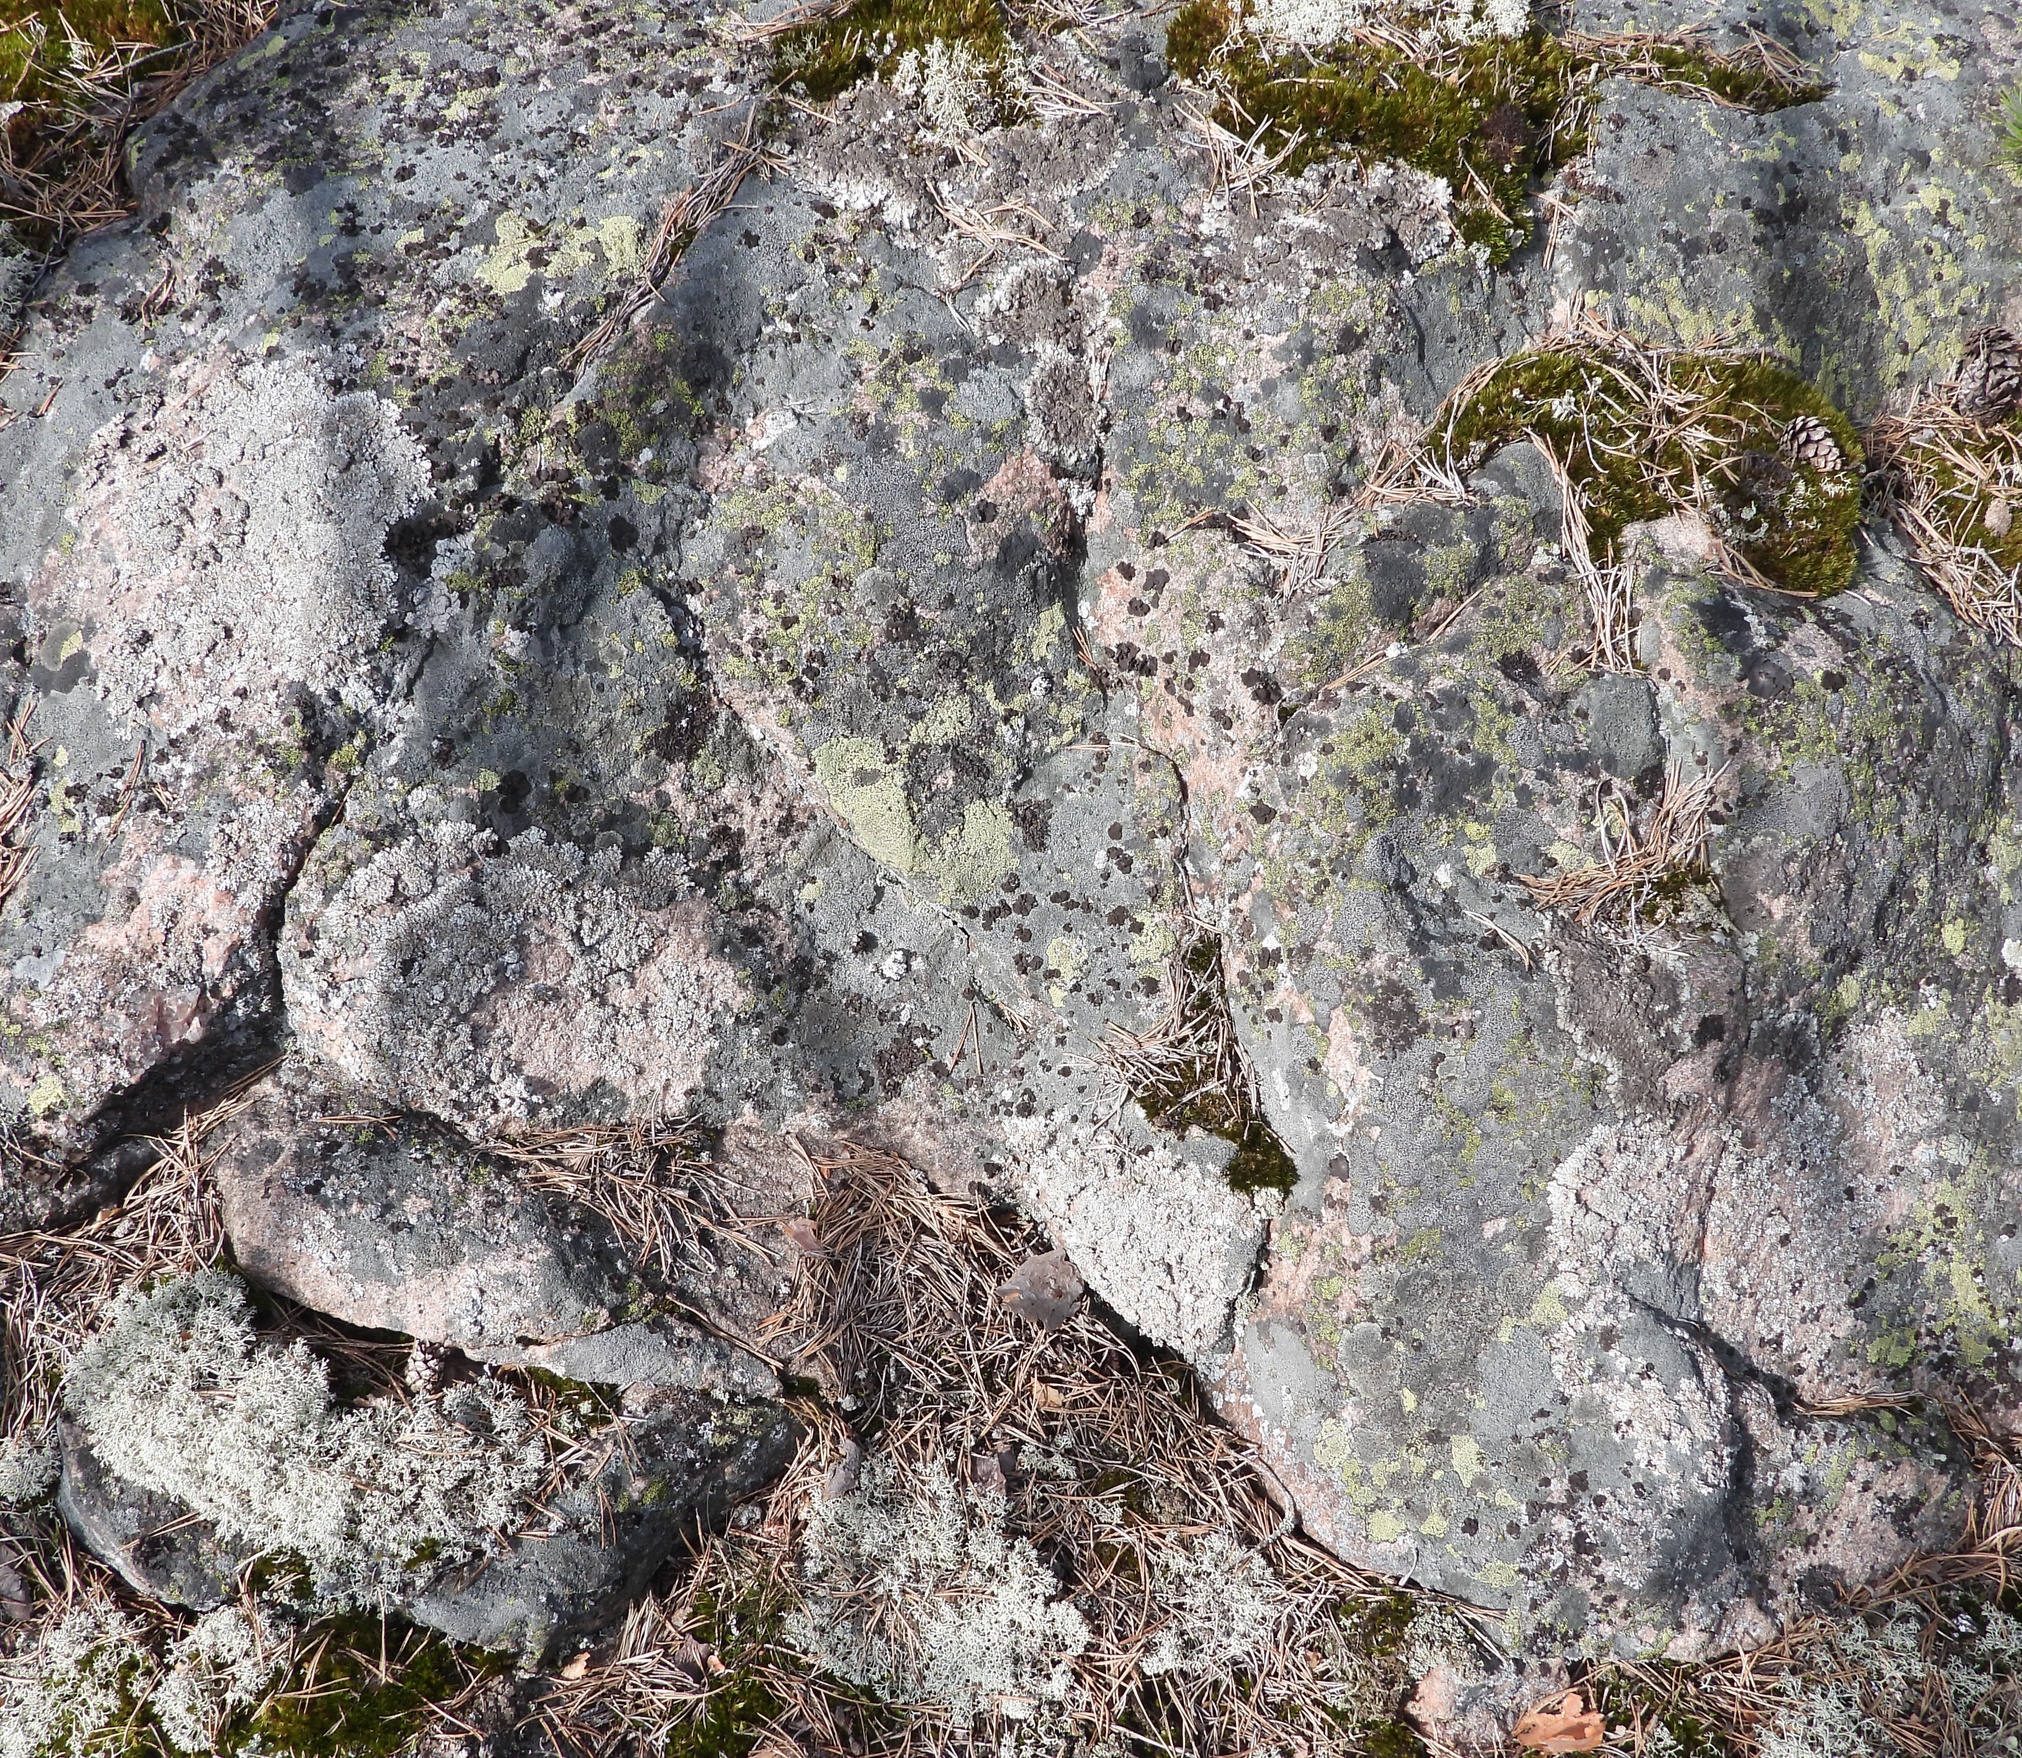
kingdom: Fungi
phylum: Ascomycota
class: Lecanoromycetes
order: Lecanorales
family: Parmeliaceae
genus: Brodoa
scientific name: Brodoa intestiniformis
